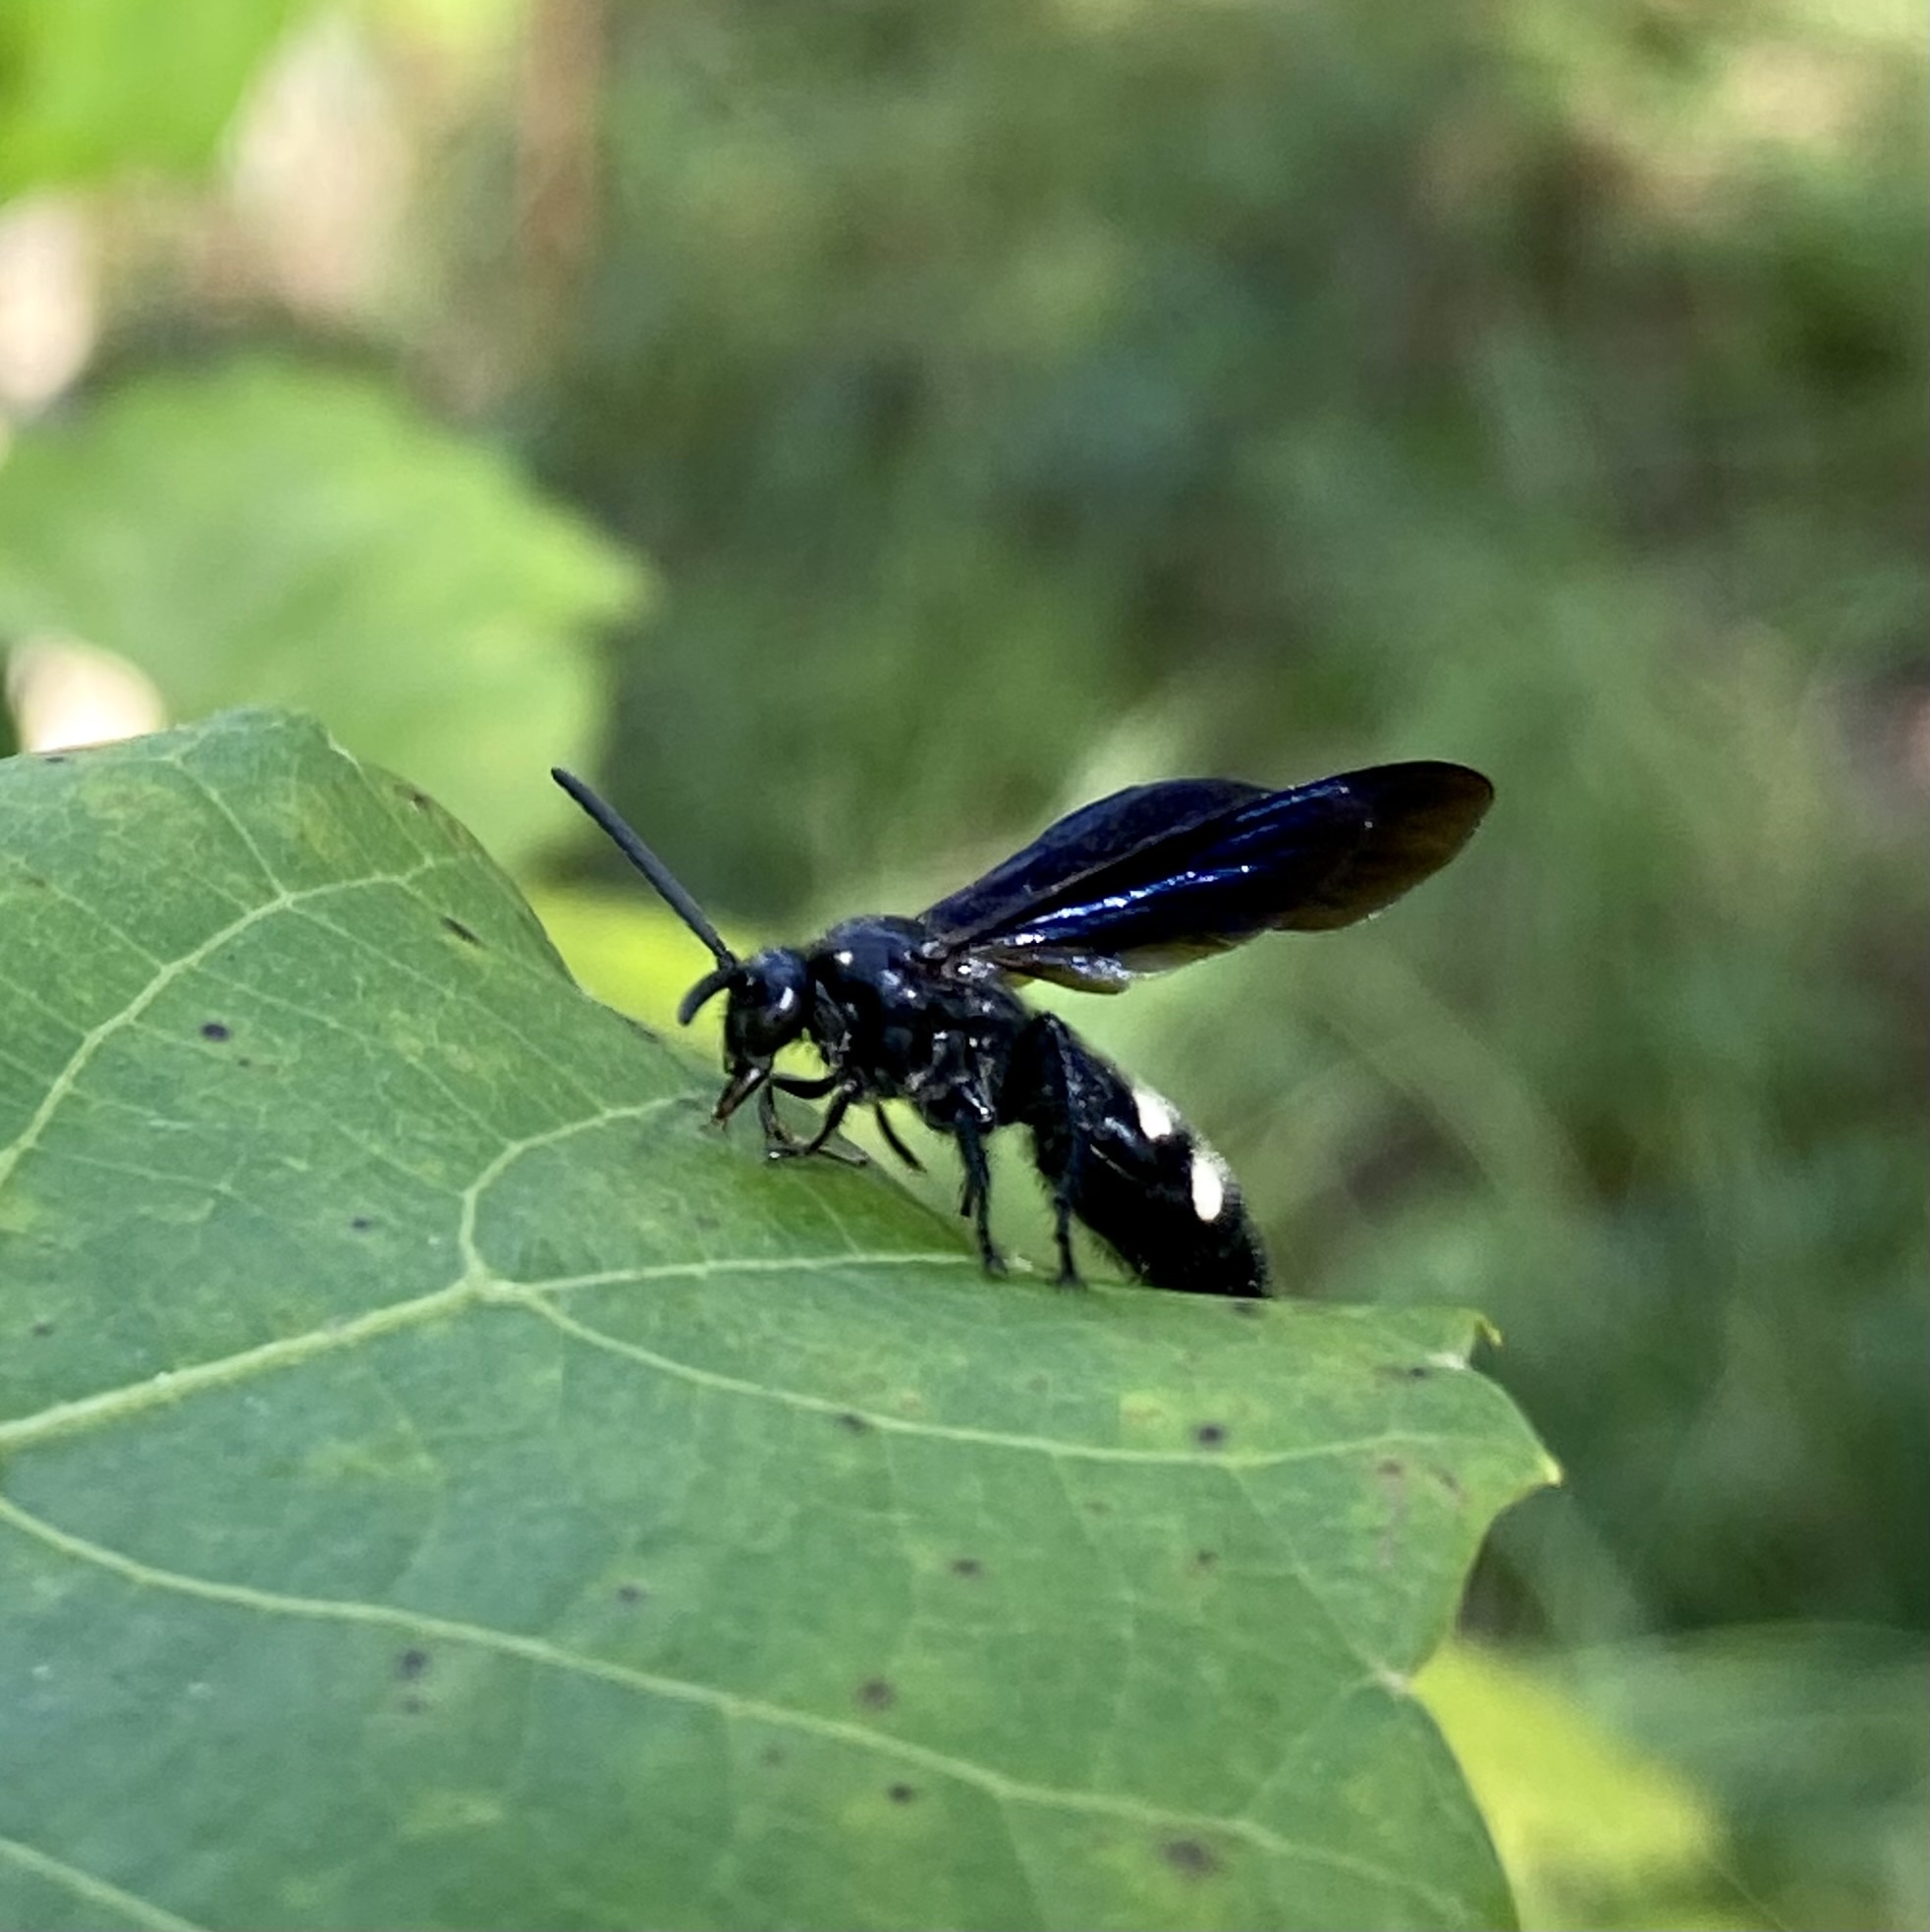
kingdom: Animalia
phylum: Arthropoda
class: Insecta
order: Hymenoptera
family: Scoliidae
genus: Scolia
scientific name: Scolia bicincta
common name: Double-banded scoliid wasp
